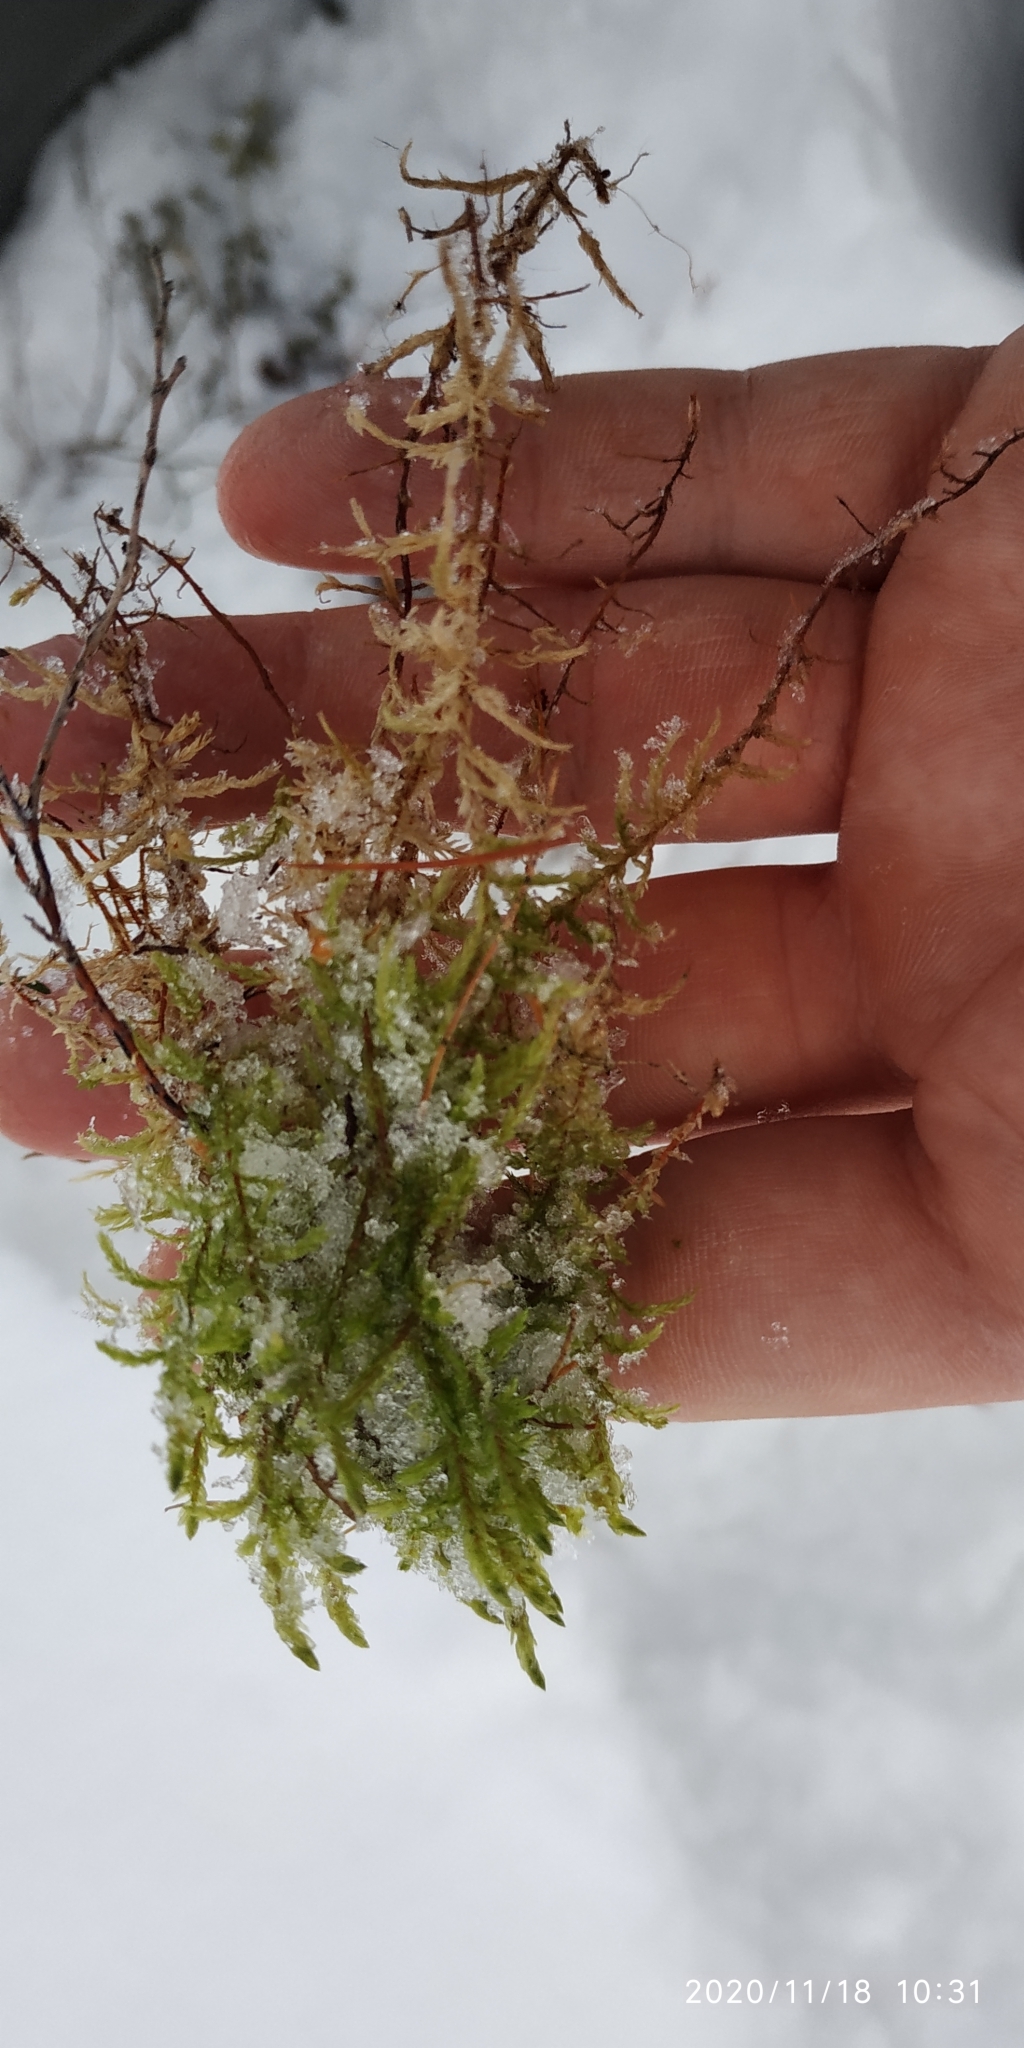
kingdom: Plantae
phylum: Bryophyta
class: Bryopsida
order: Hypnales
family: Hylocomiaceae
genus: Pleurozium
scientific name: Pleurozium schreberi
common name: Red-stemmed feather moss
